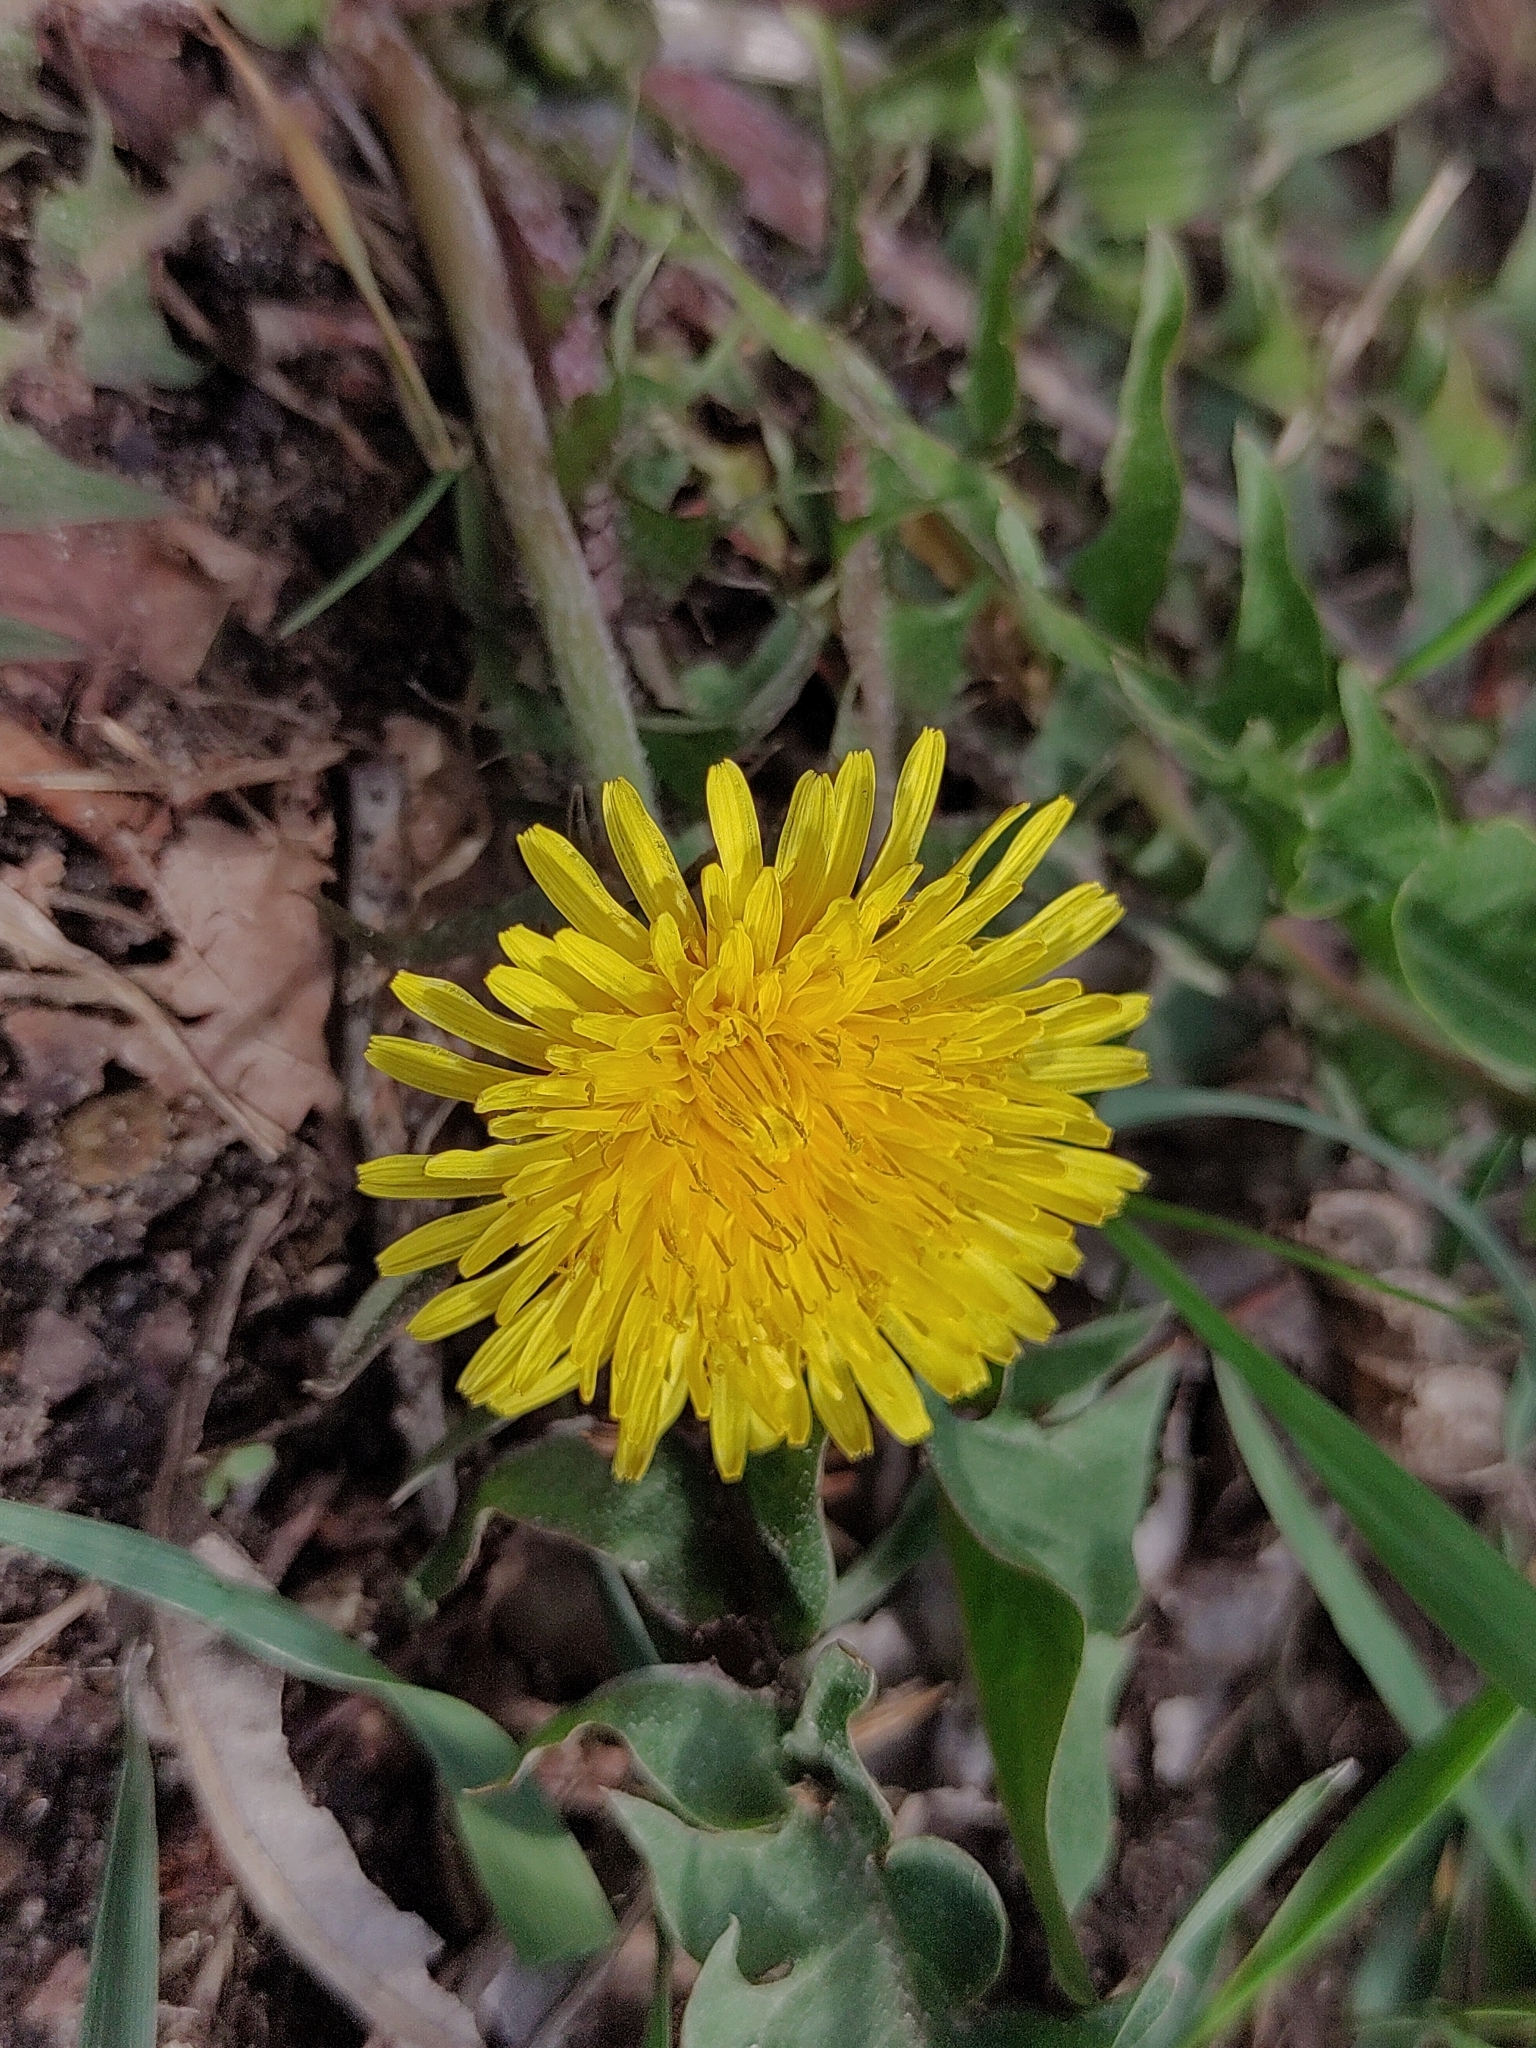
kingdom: Plantae
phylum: Tracheophyta
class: Magnoliopsida
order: Asterales
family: Asteraceae
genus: Taraxacum
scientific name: Taraxacum
